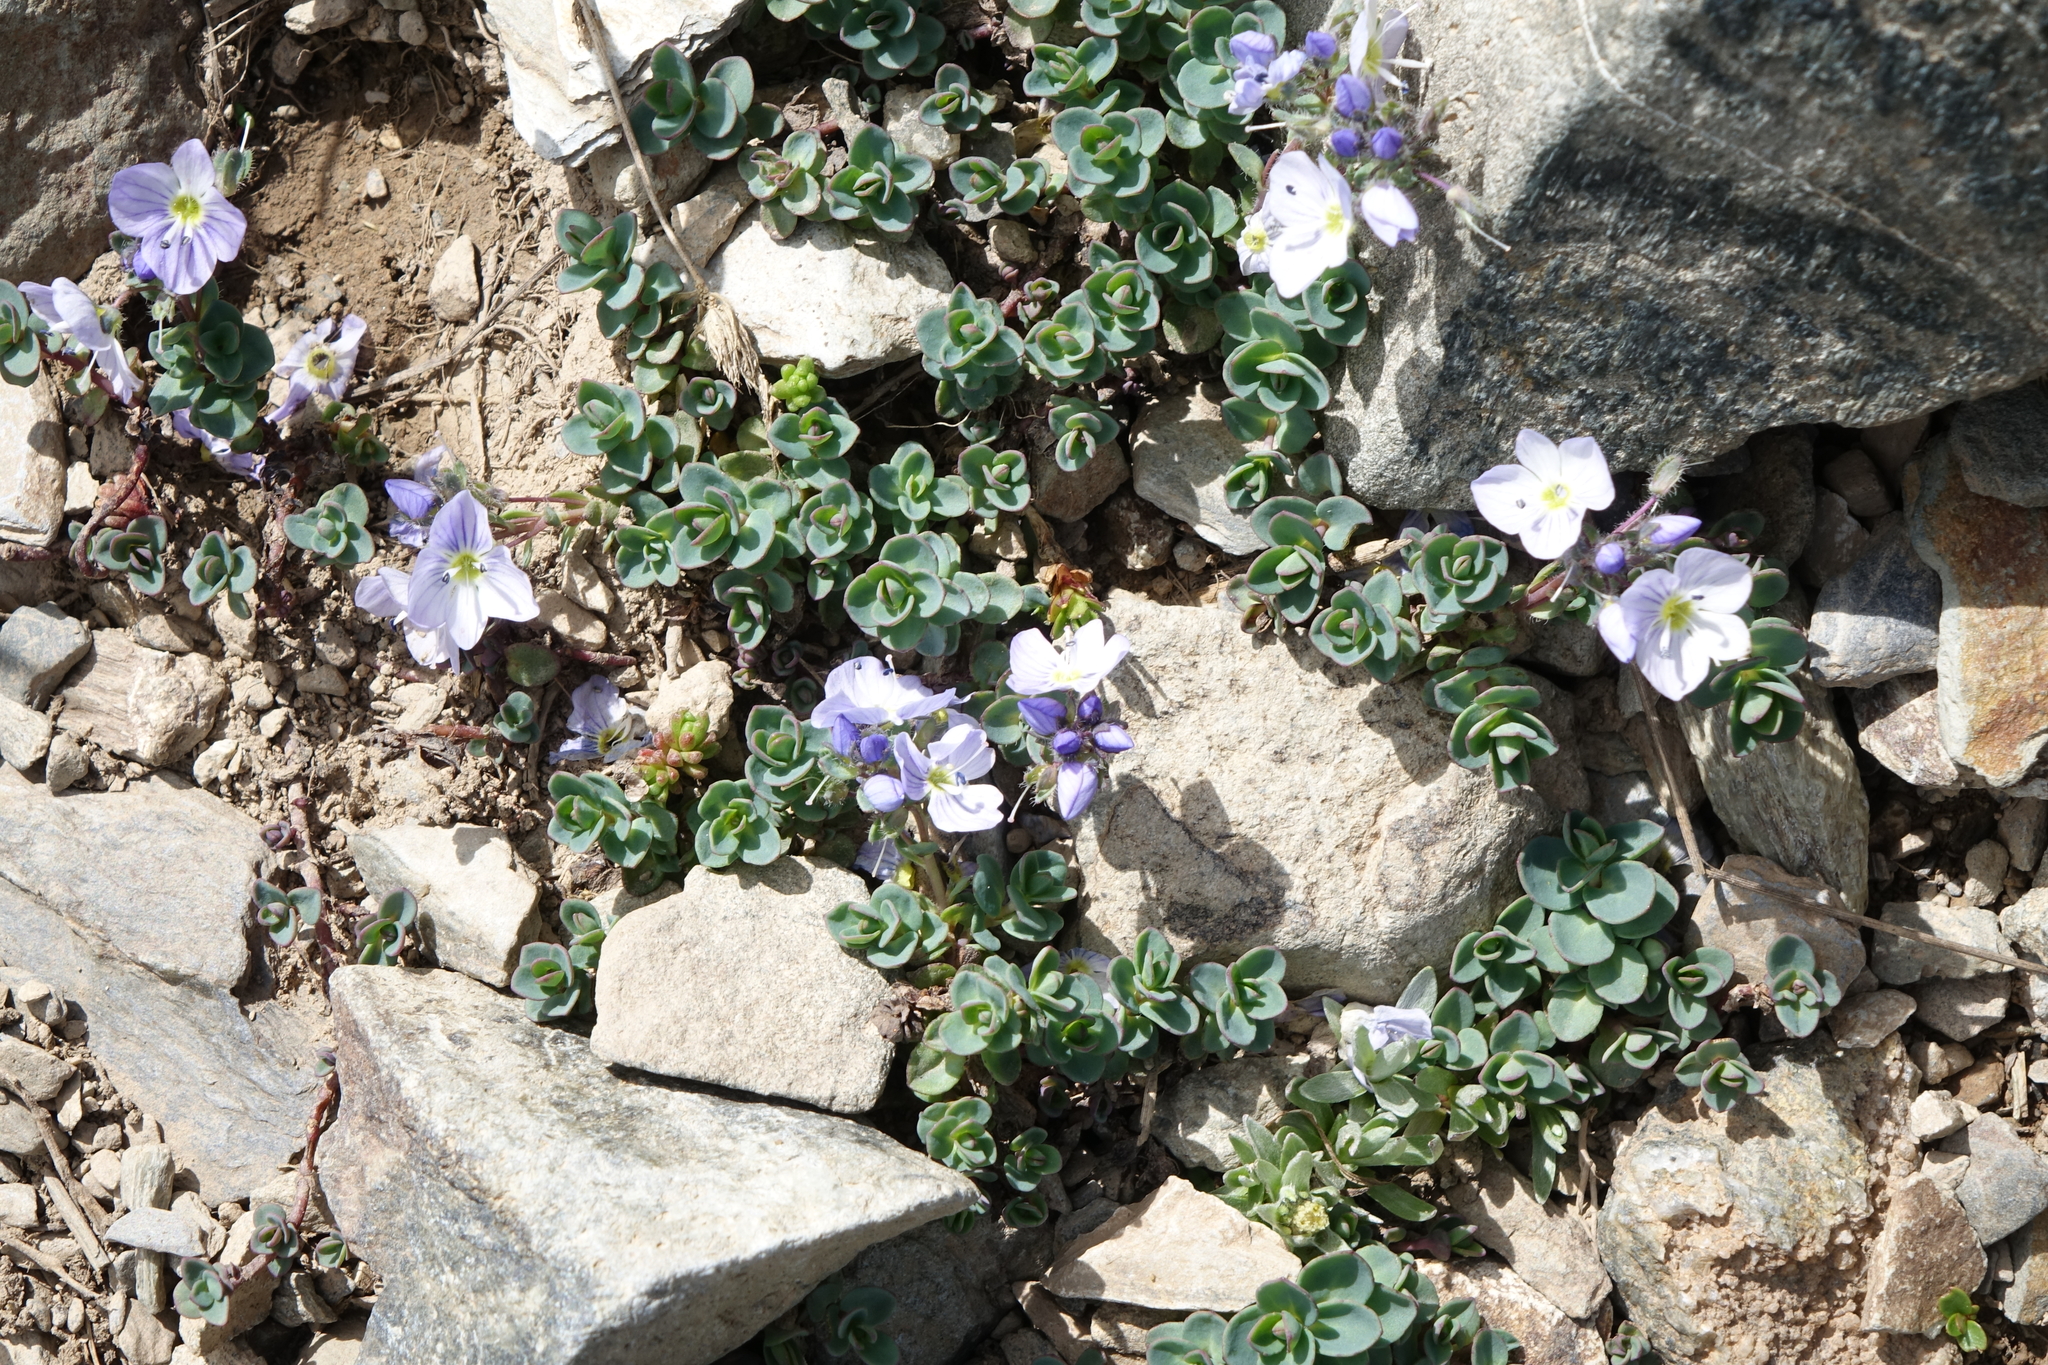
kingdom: Plantae
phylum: Tracheophyta
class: Magnoliopsida
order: Lamiales
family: Plantaginaceae
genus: Veronica
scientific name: Veronica telephiifolia
